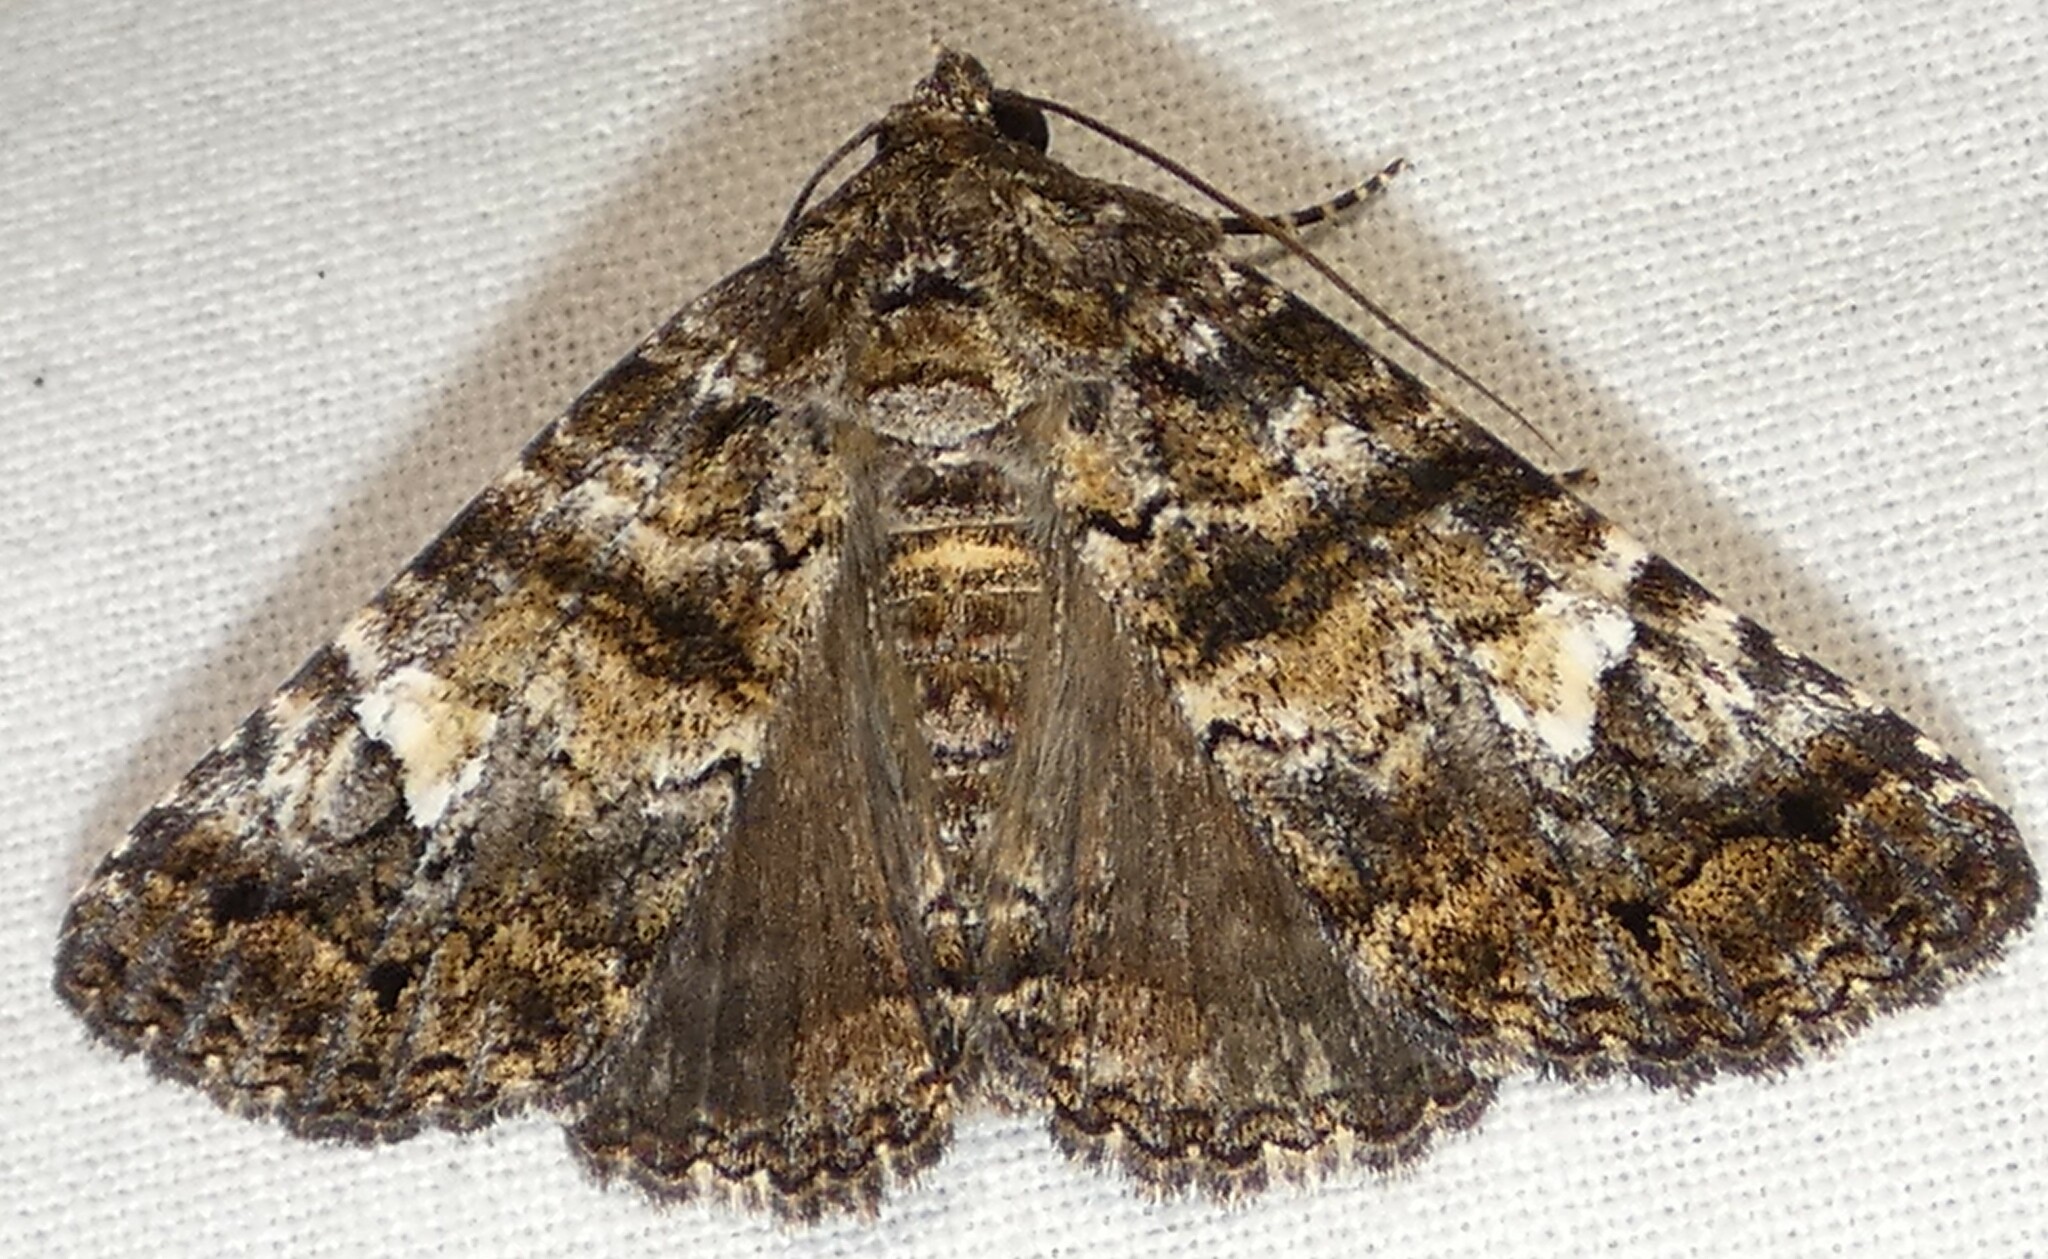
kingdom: Animalia
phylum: Arthropoda
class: Insecta
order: Lepidoptera
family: Erebidae
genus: Metria
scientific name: Metria amella
